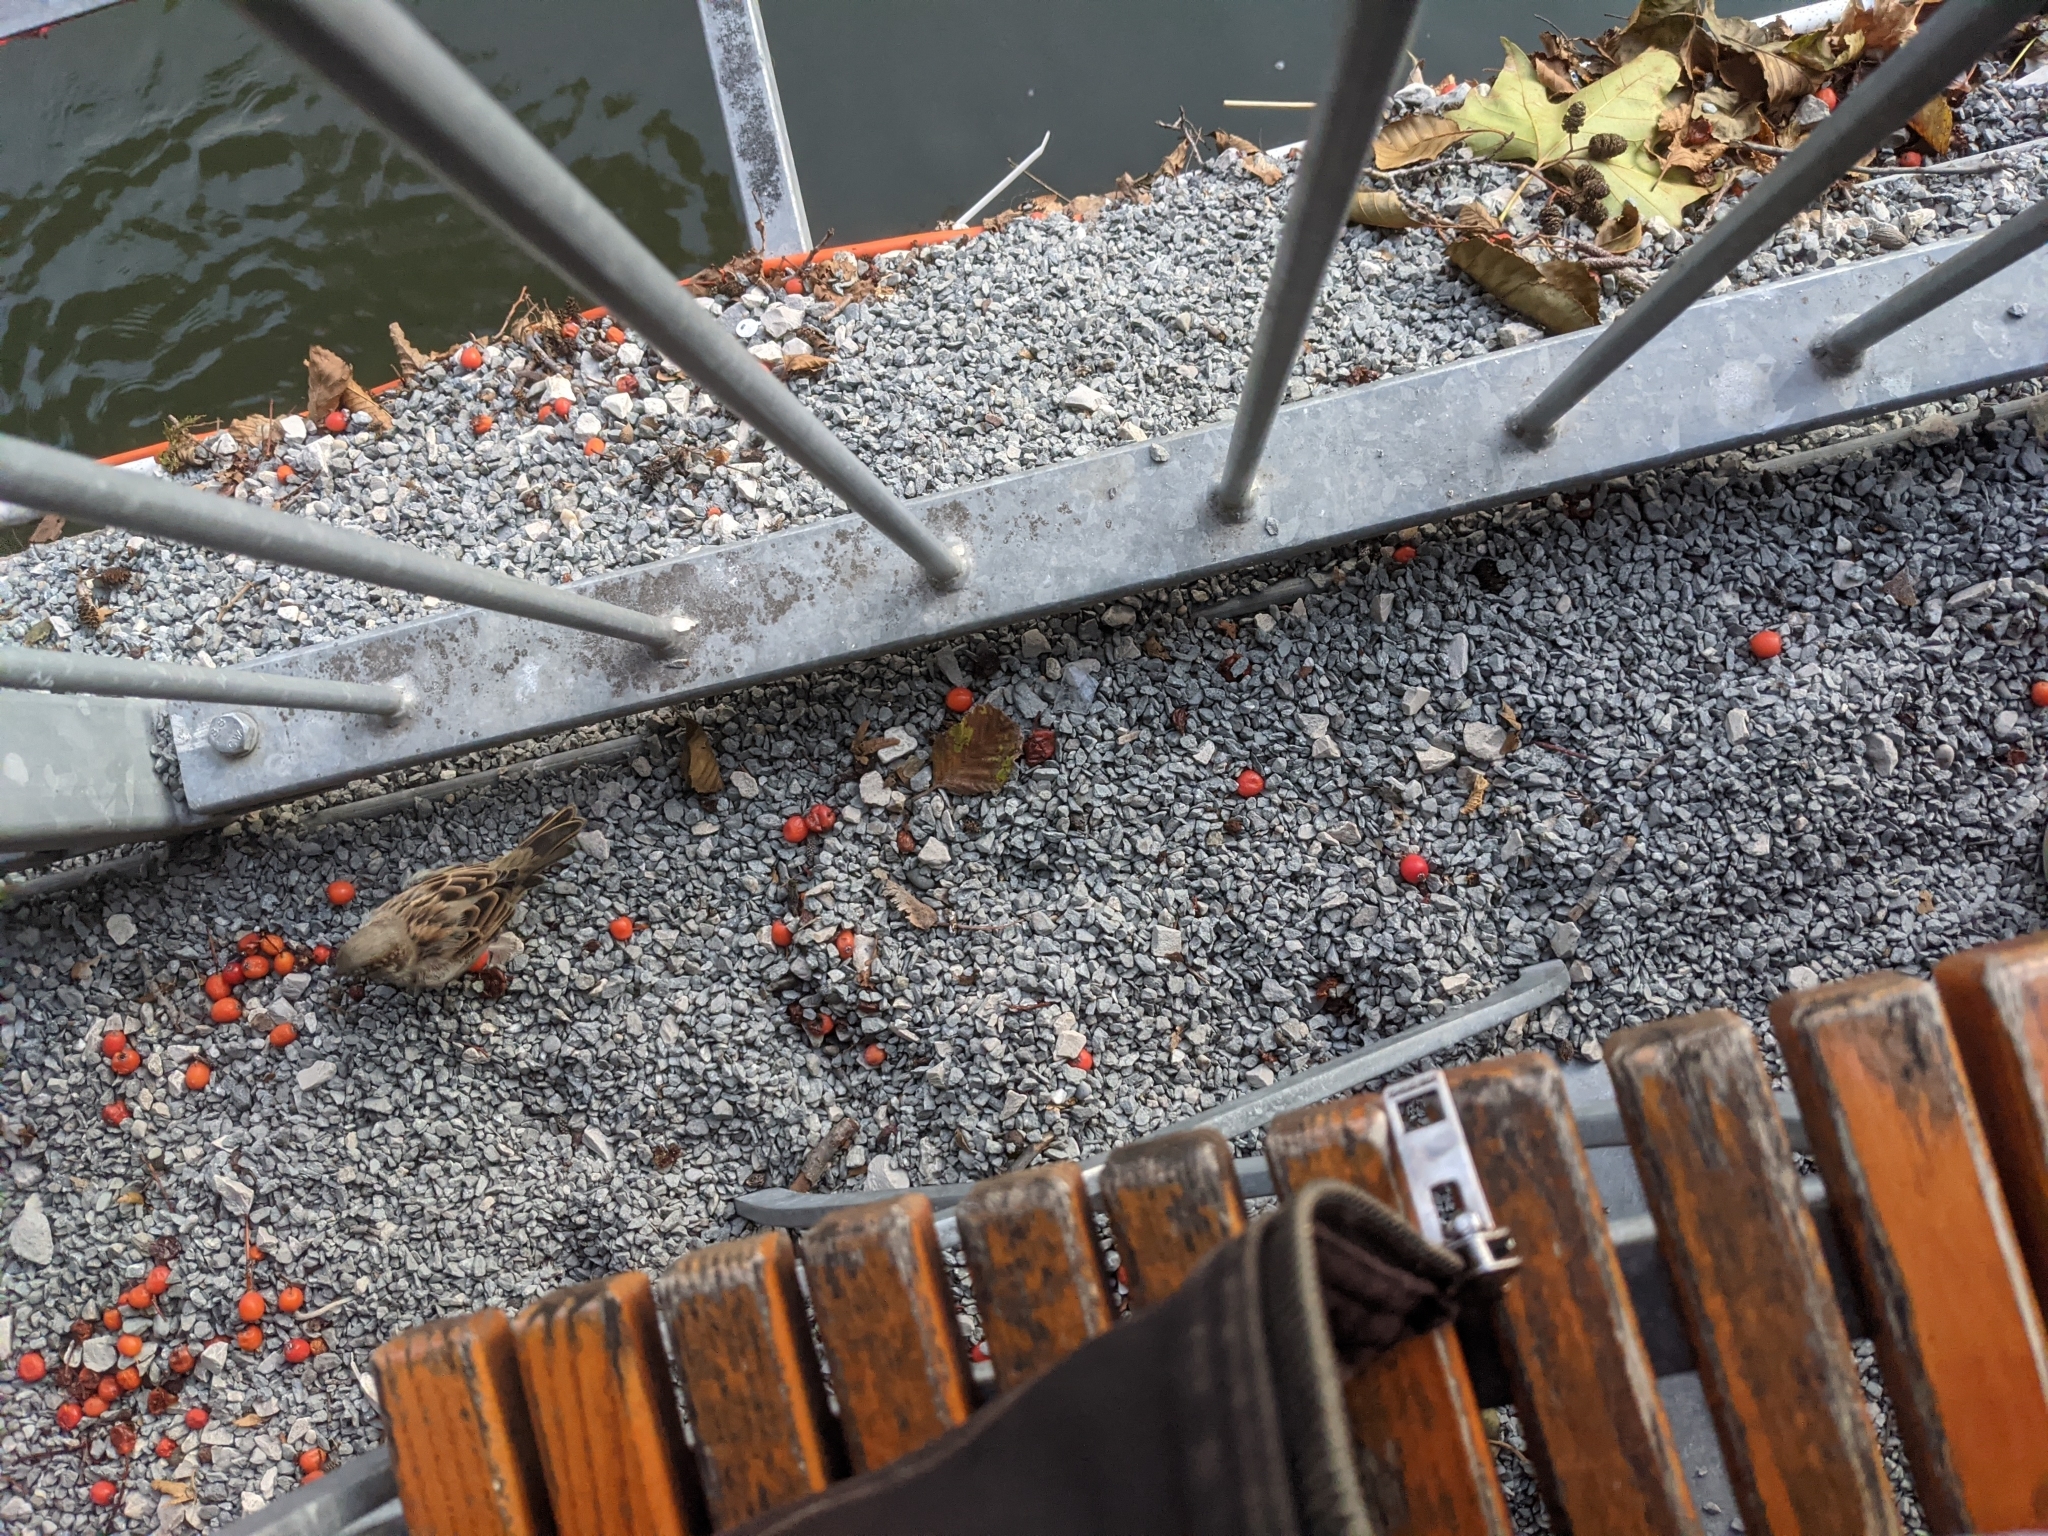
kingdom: Animalia
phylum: Chordata
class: Aves
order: Passeriformes
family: Passeridae
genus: Passer
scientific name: Passer domesticus
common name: House sparrow
